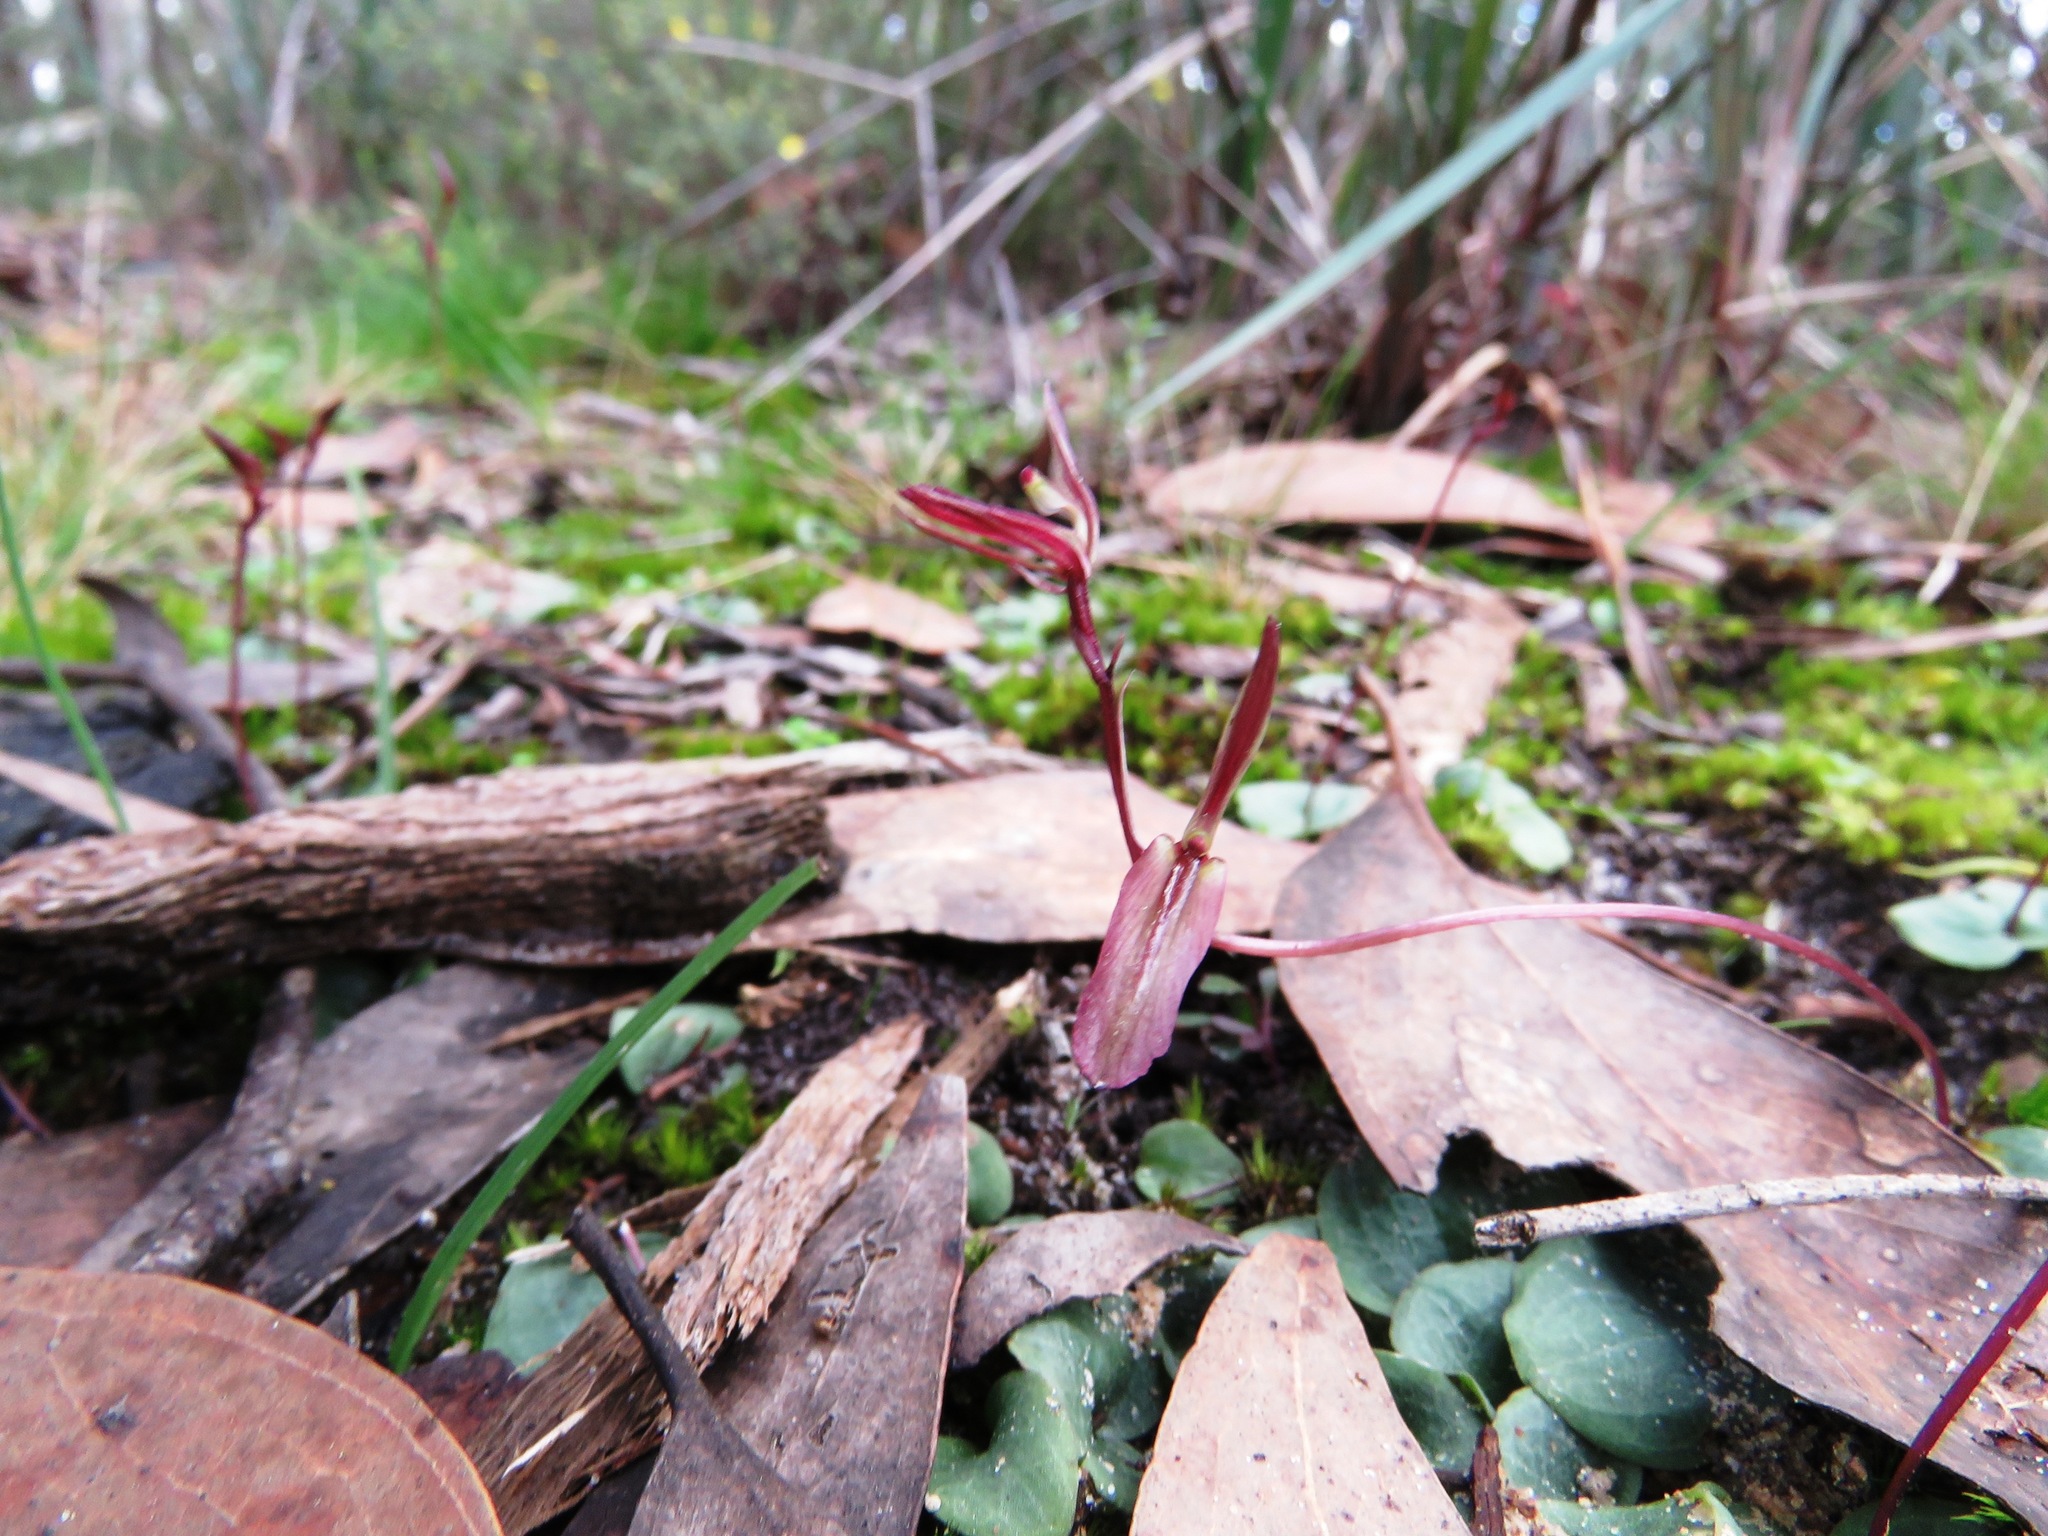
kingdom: Plantae
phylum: Tracheophyta
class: Liliopsida
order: Asparagales
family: Orchidaceae
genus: Cyrtostylis
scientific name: Cyrtostylis reniformis
